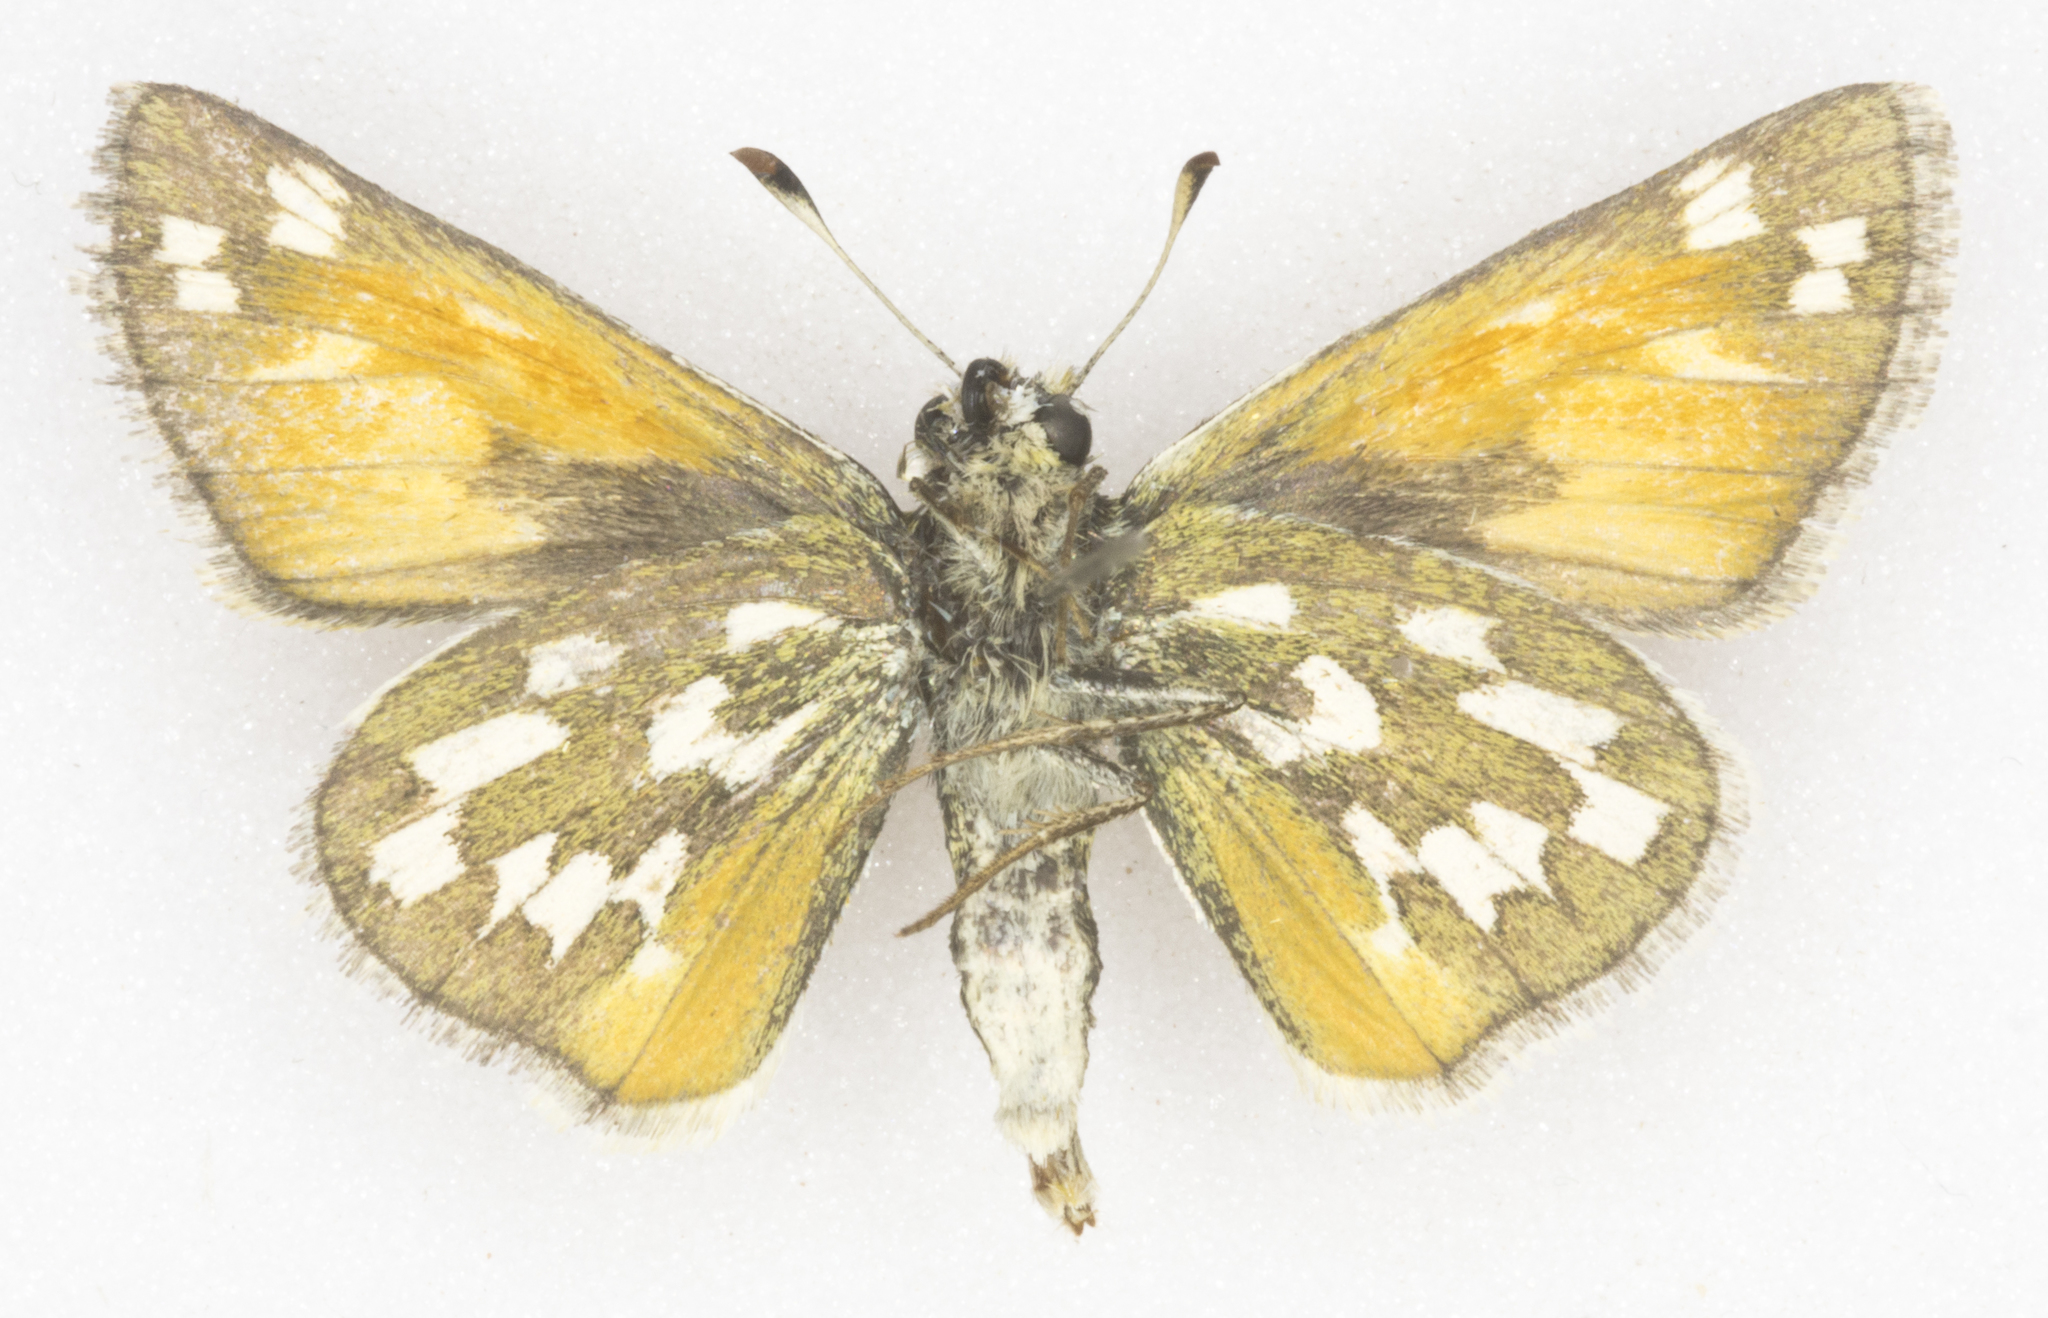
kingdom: Animalia
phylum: Arthropoda
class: Insecta
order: Lepidoptera
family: Hesperiidae
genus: Hesperia
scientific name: Hesperia nevada
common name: Nevada skipper
